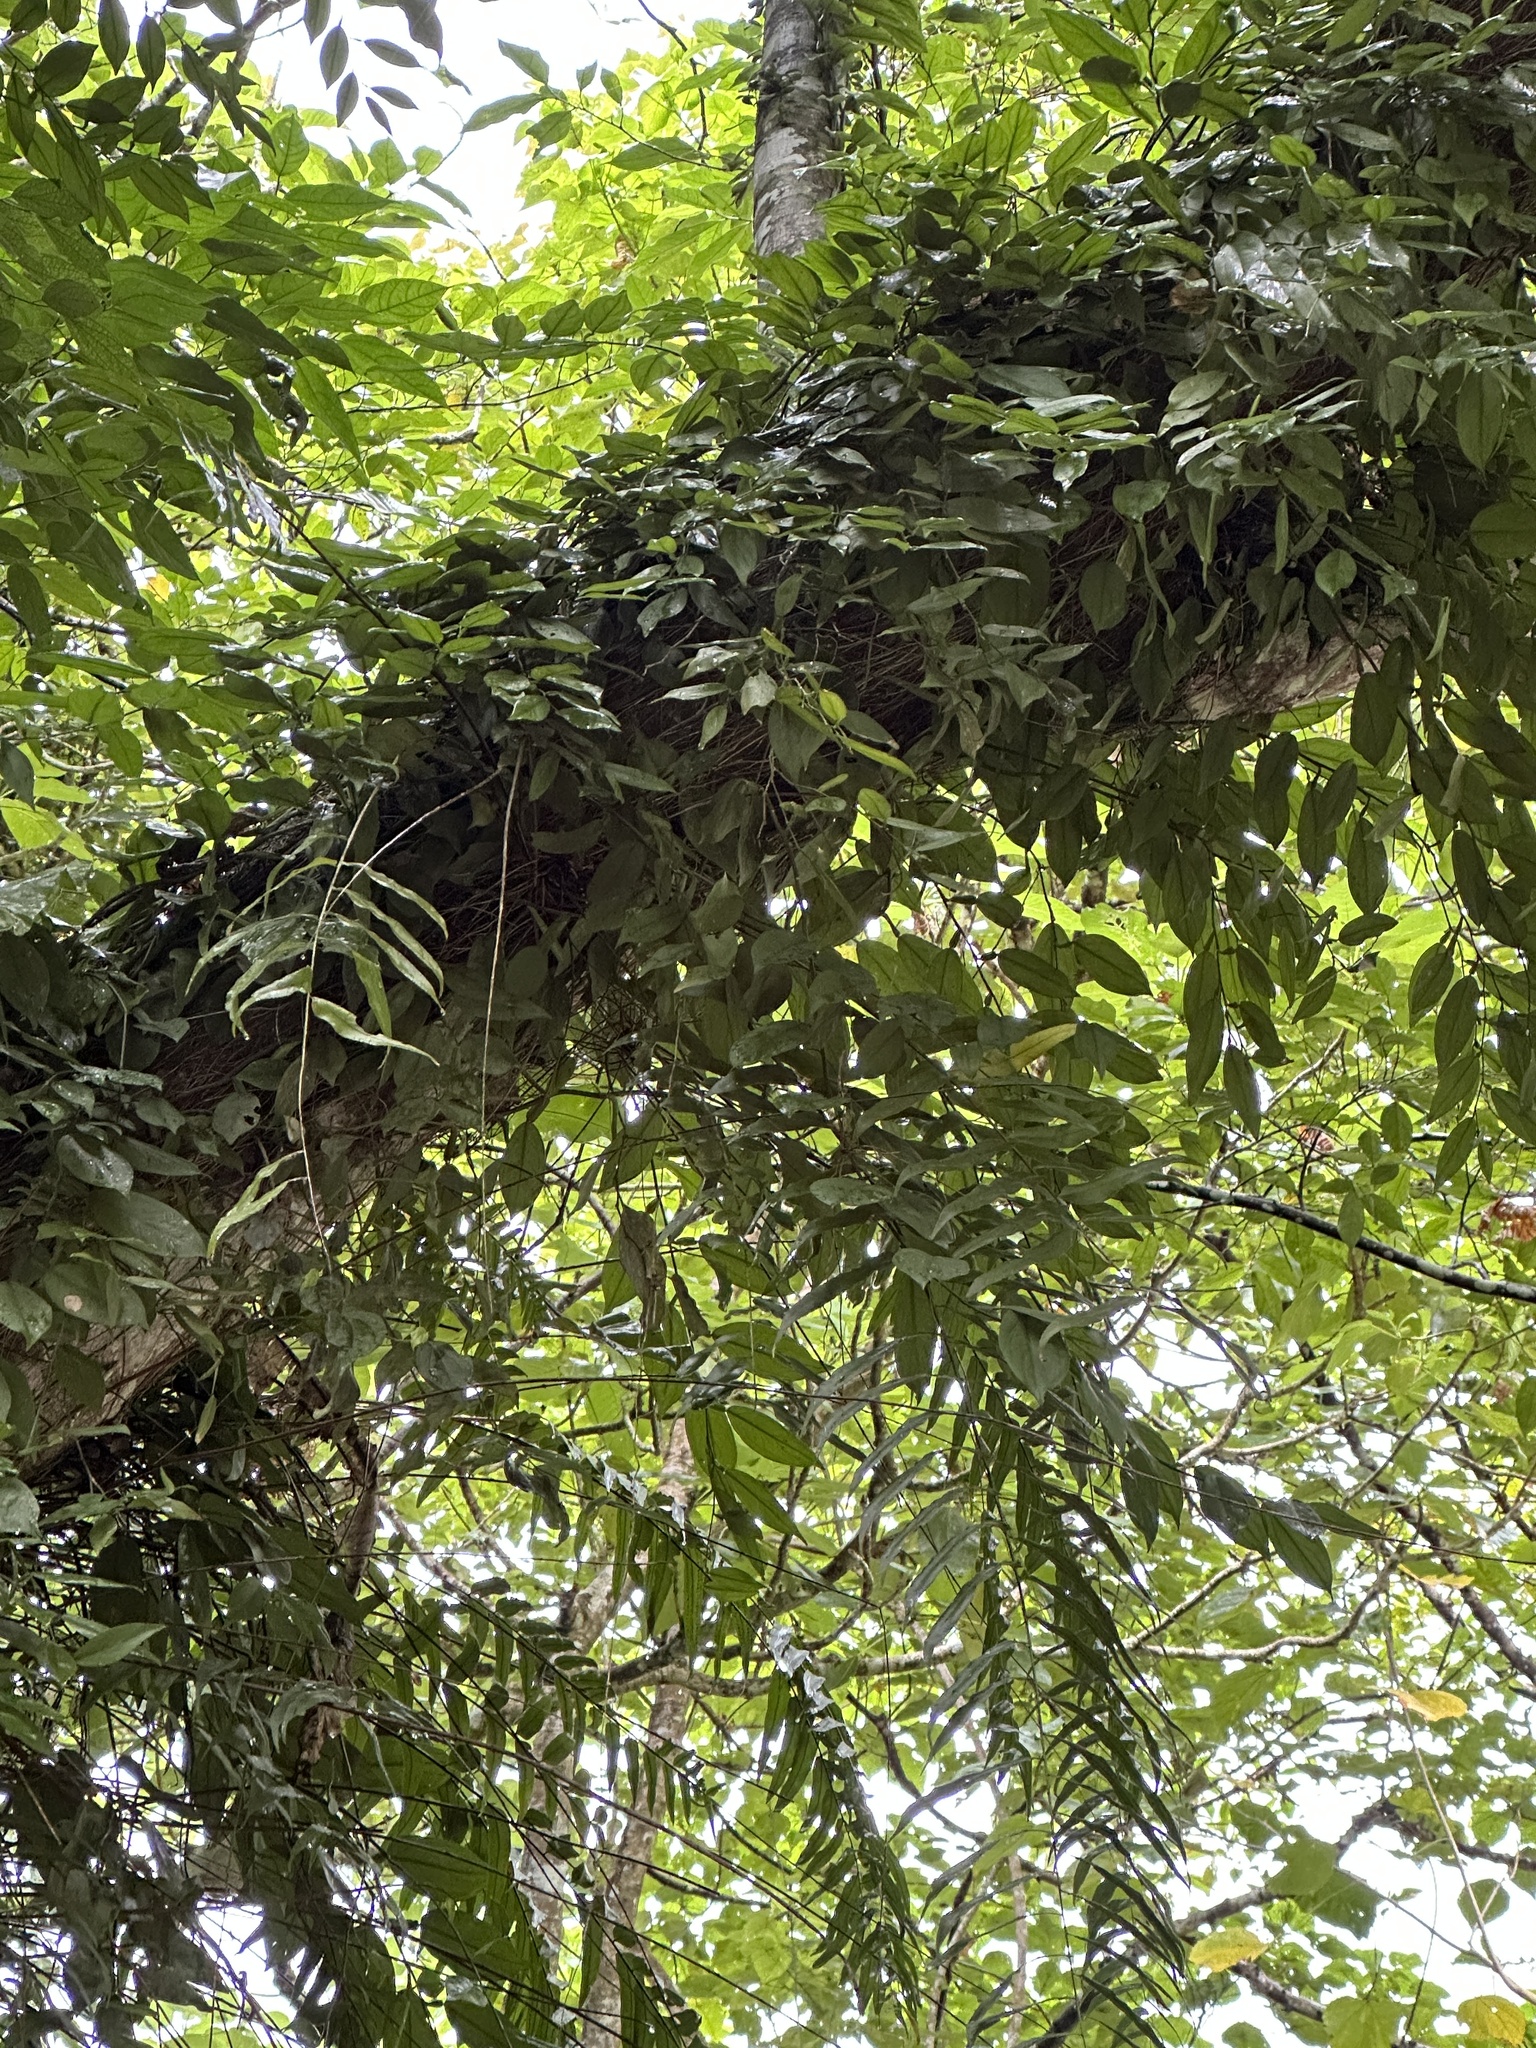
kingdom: Plantae
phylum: Tracheophyta
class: Liliopsida
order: Alismatales
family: Araceae
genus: Pothos
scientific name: Pothos chinensis
